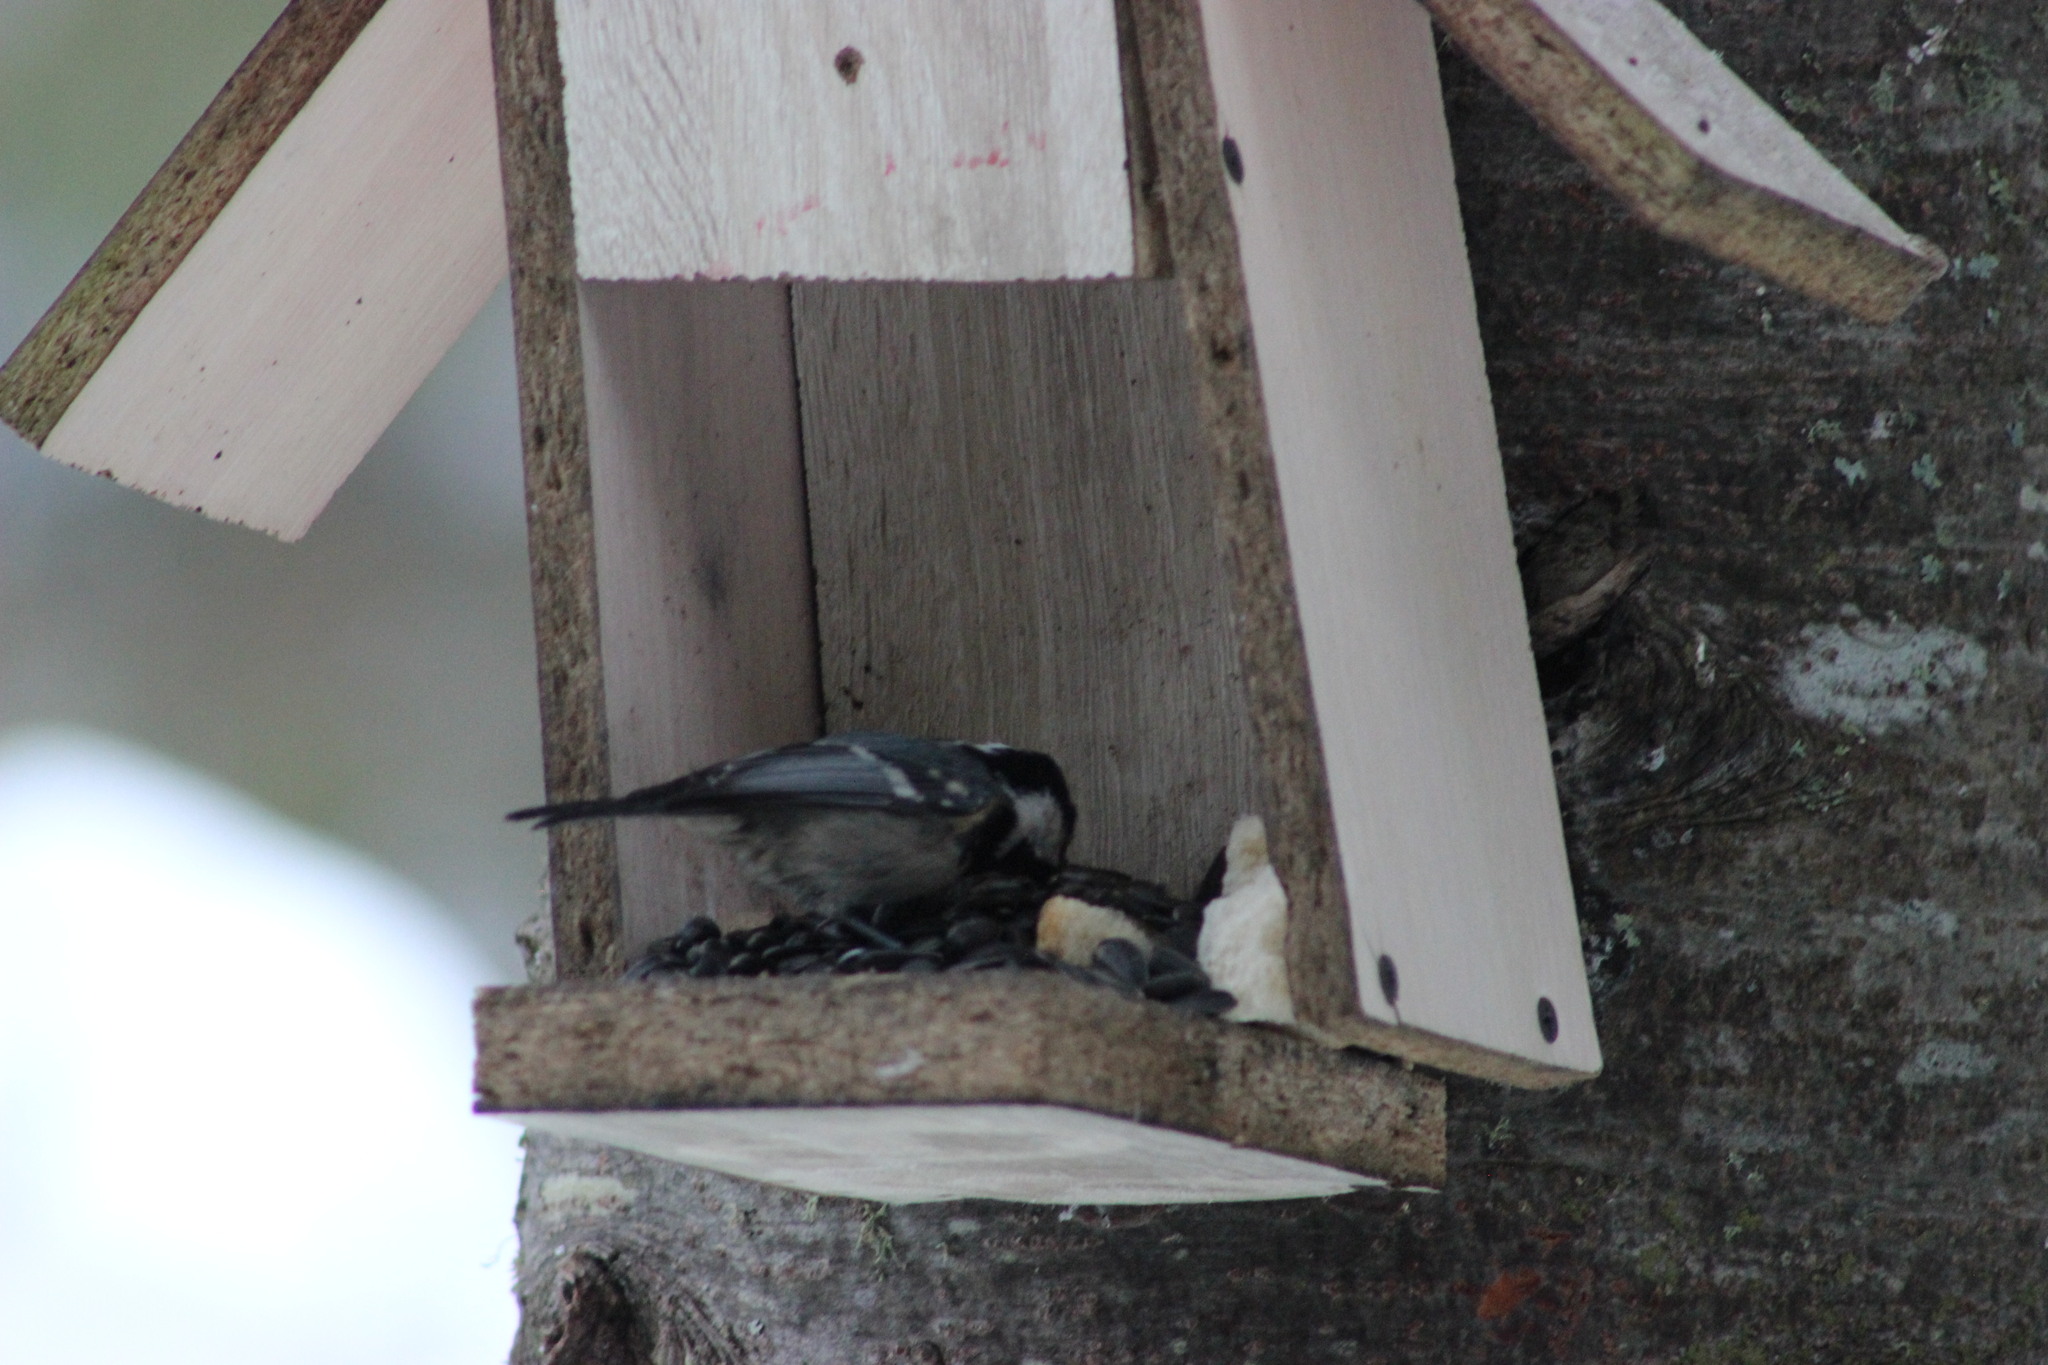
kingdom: Animalia
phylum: Chordata
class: Aves
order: Passeriformes
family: Paridae
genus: Periparus
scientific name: Periparus ater
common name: Coal tit
